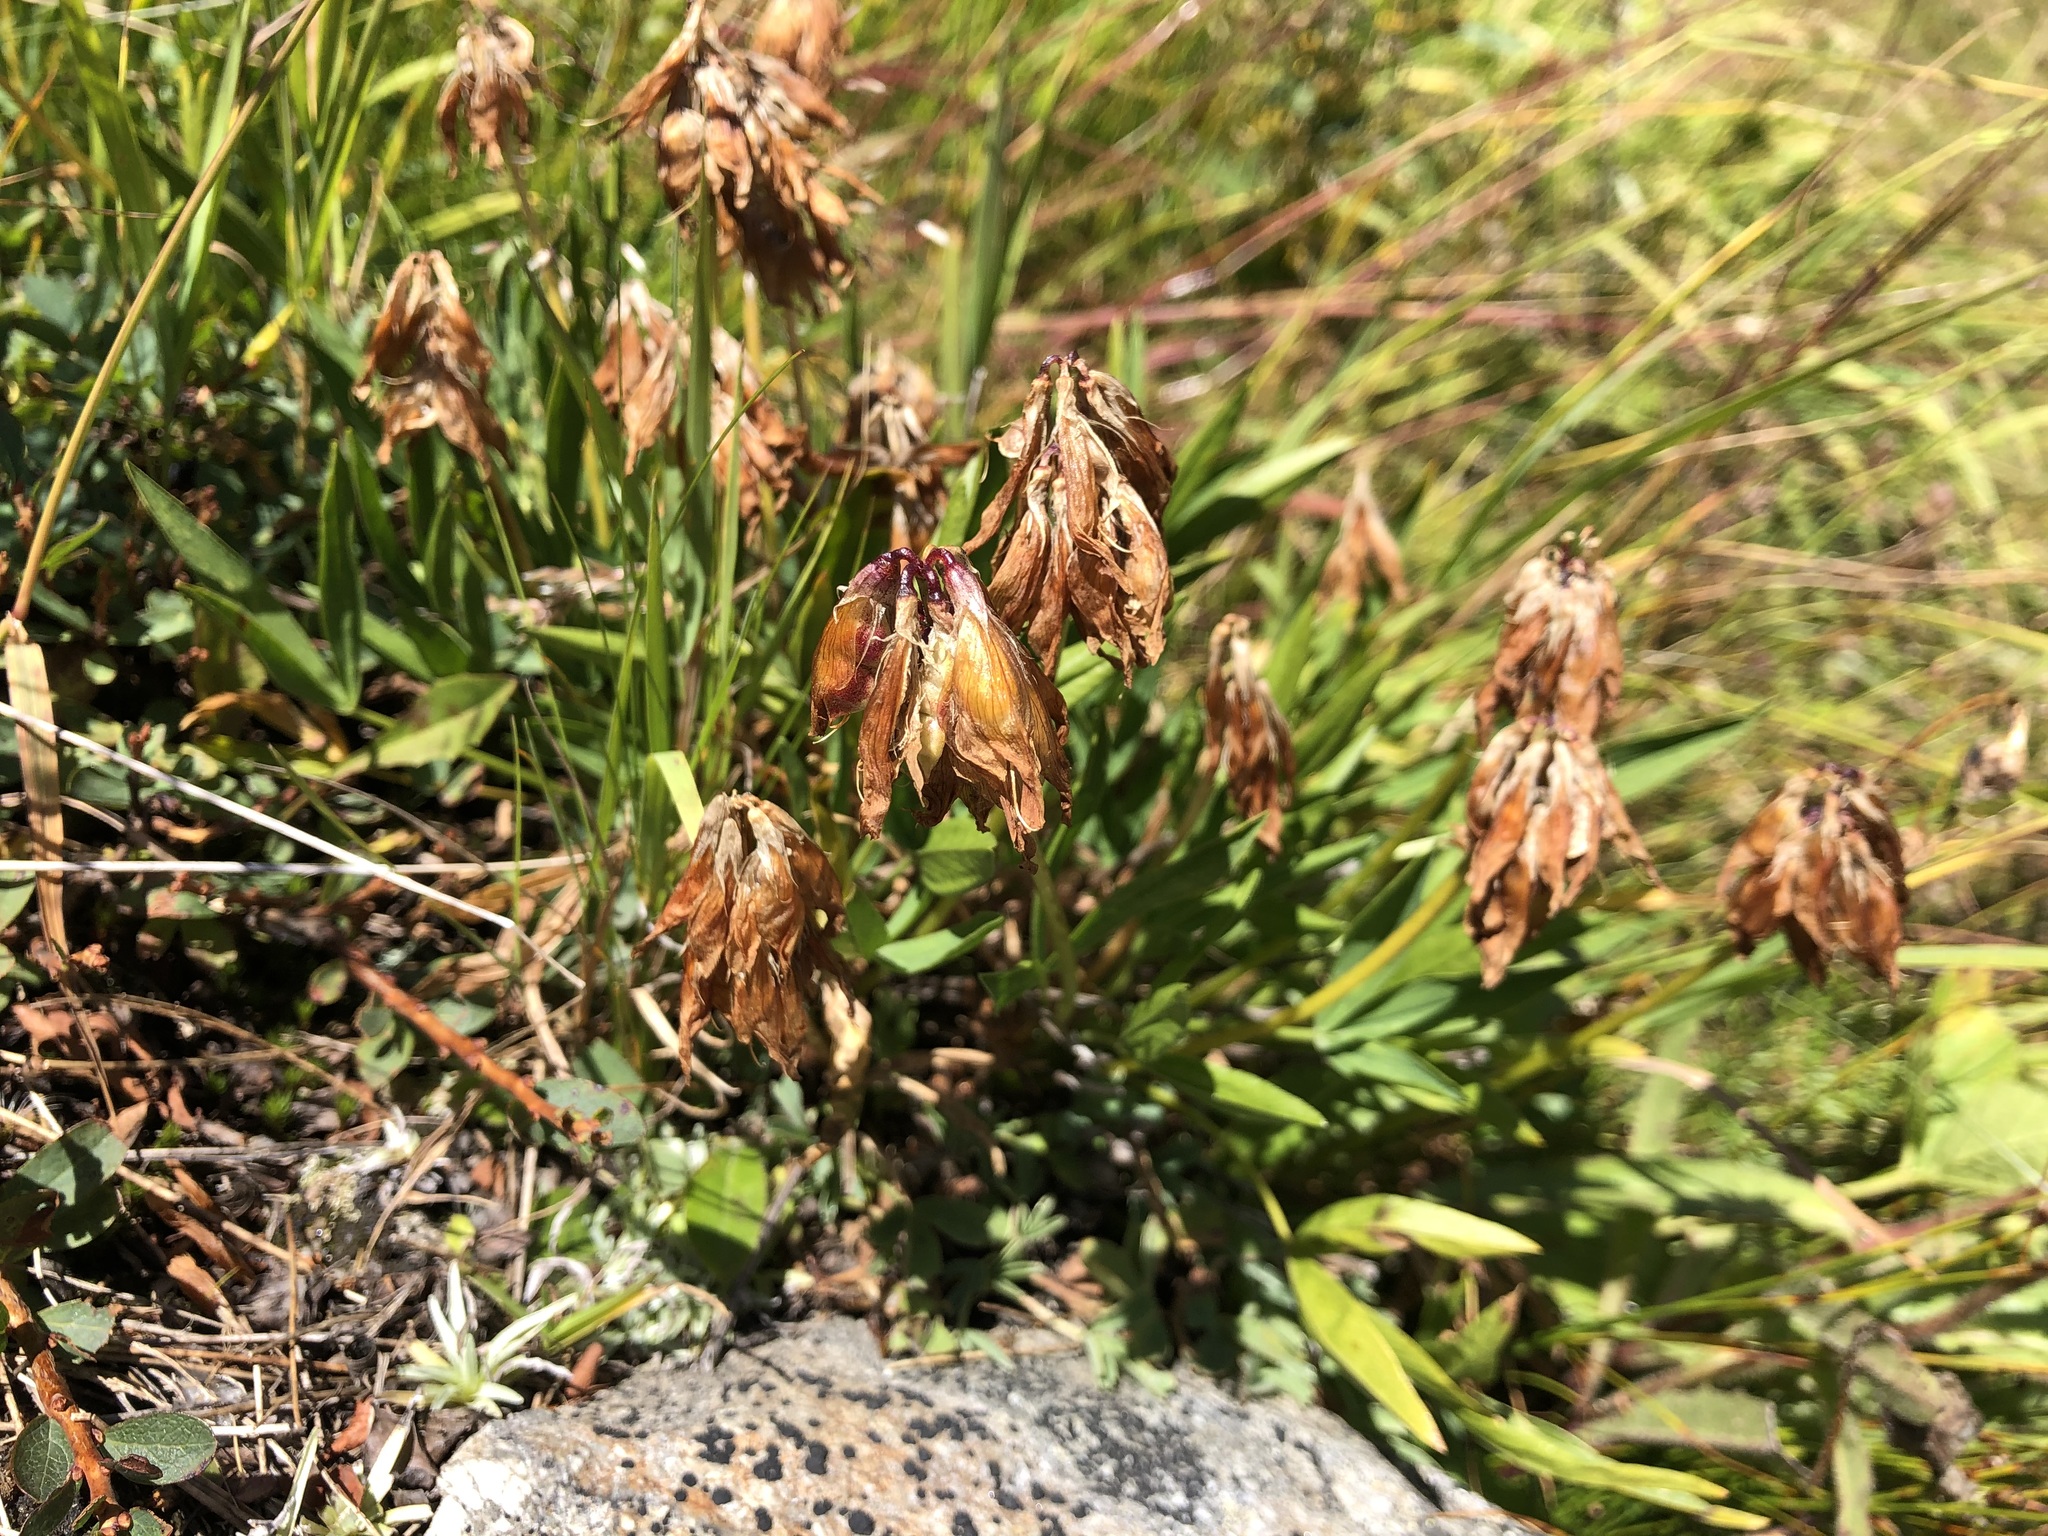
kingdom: Plantae
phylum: Tracheophyta
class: Magnoliopsida
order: Fabales
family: Fabaceae
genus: Trifolium
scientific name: Trifolium alpinum
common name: Alpine clover
